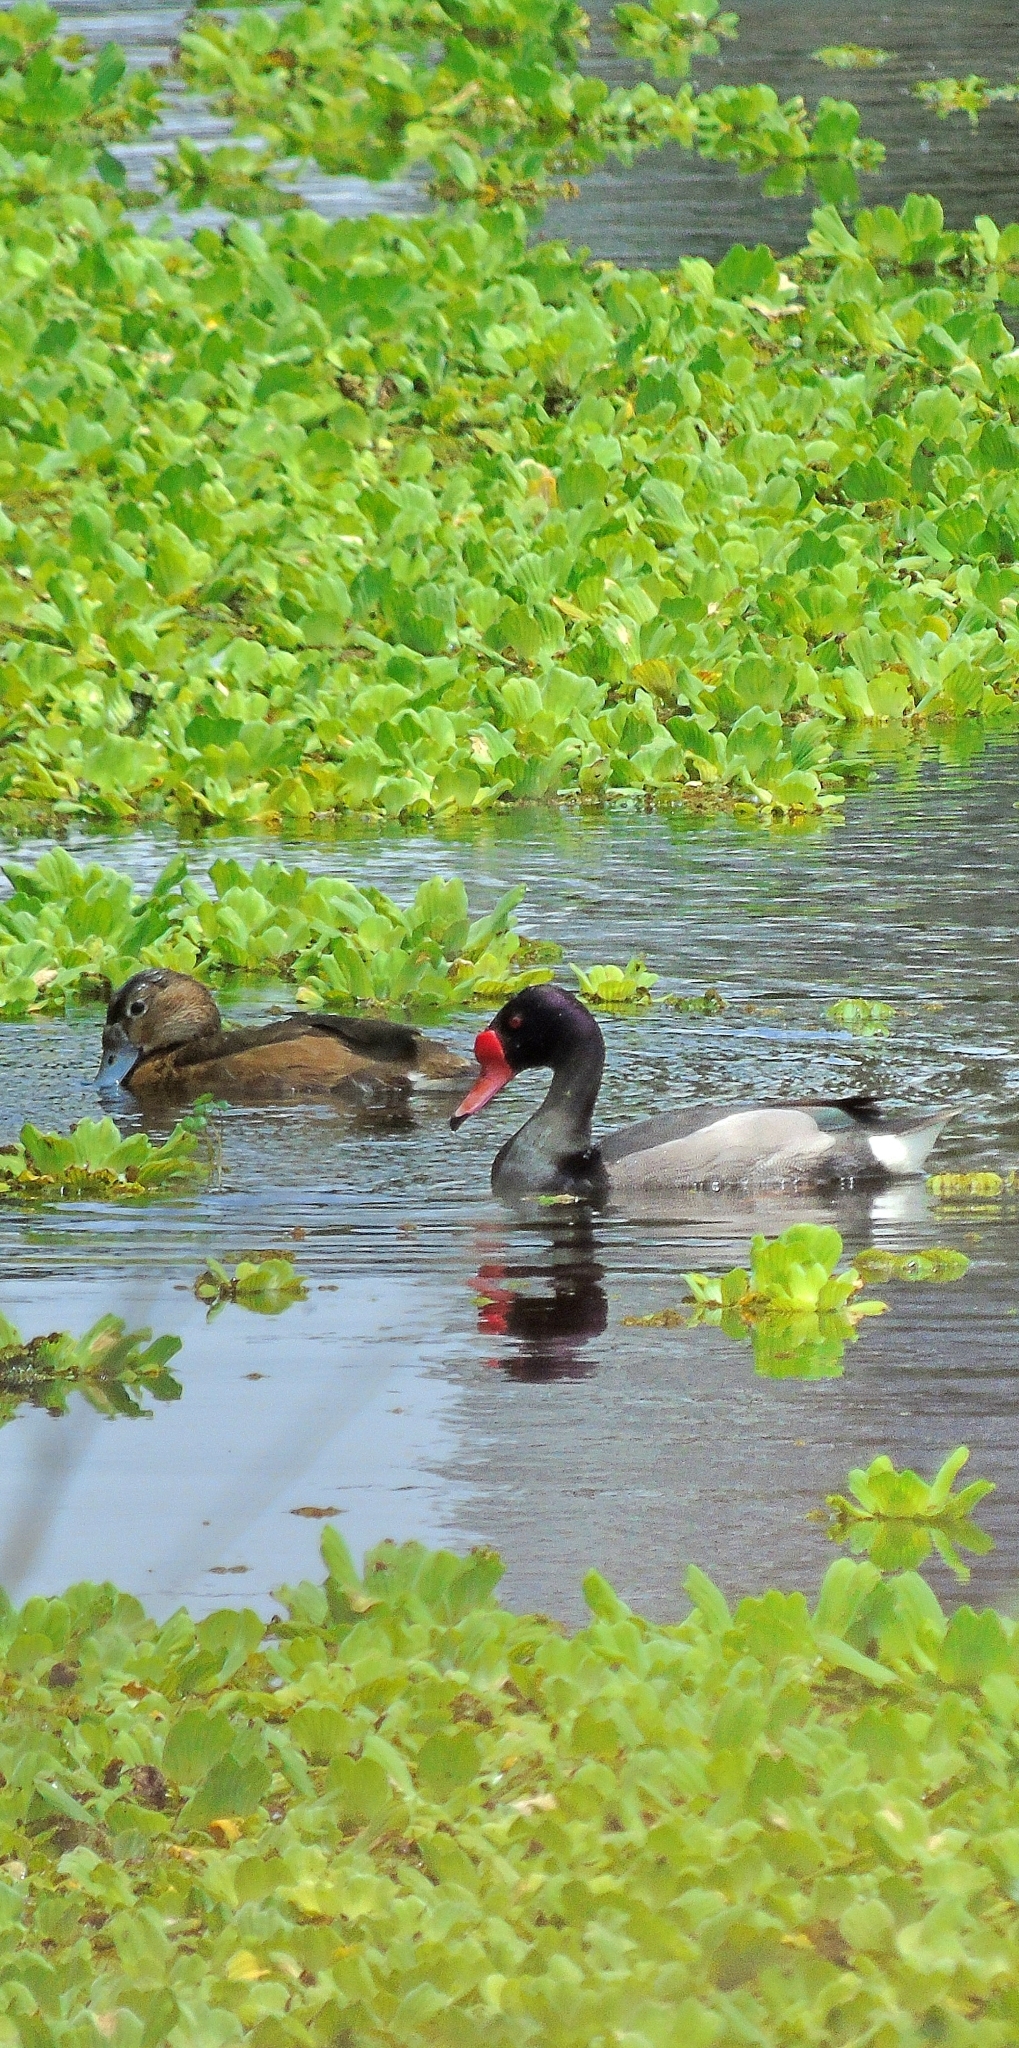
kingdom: Animalia
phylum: Chordata
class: Aves
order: Anseriformes
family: Anatidae
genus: Netta
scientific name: Netta peposaca
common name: Rosy-billed pochard
